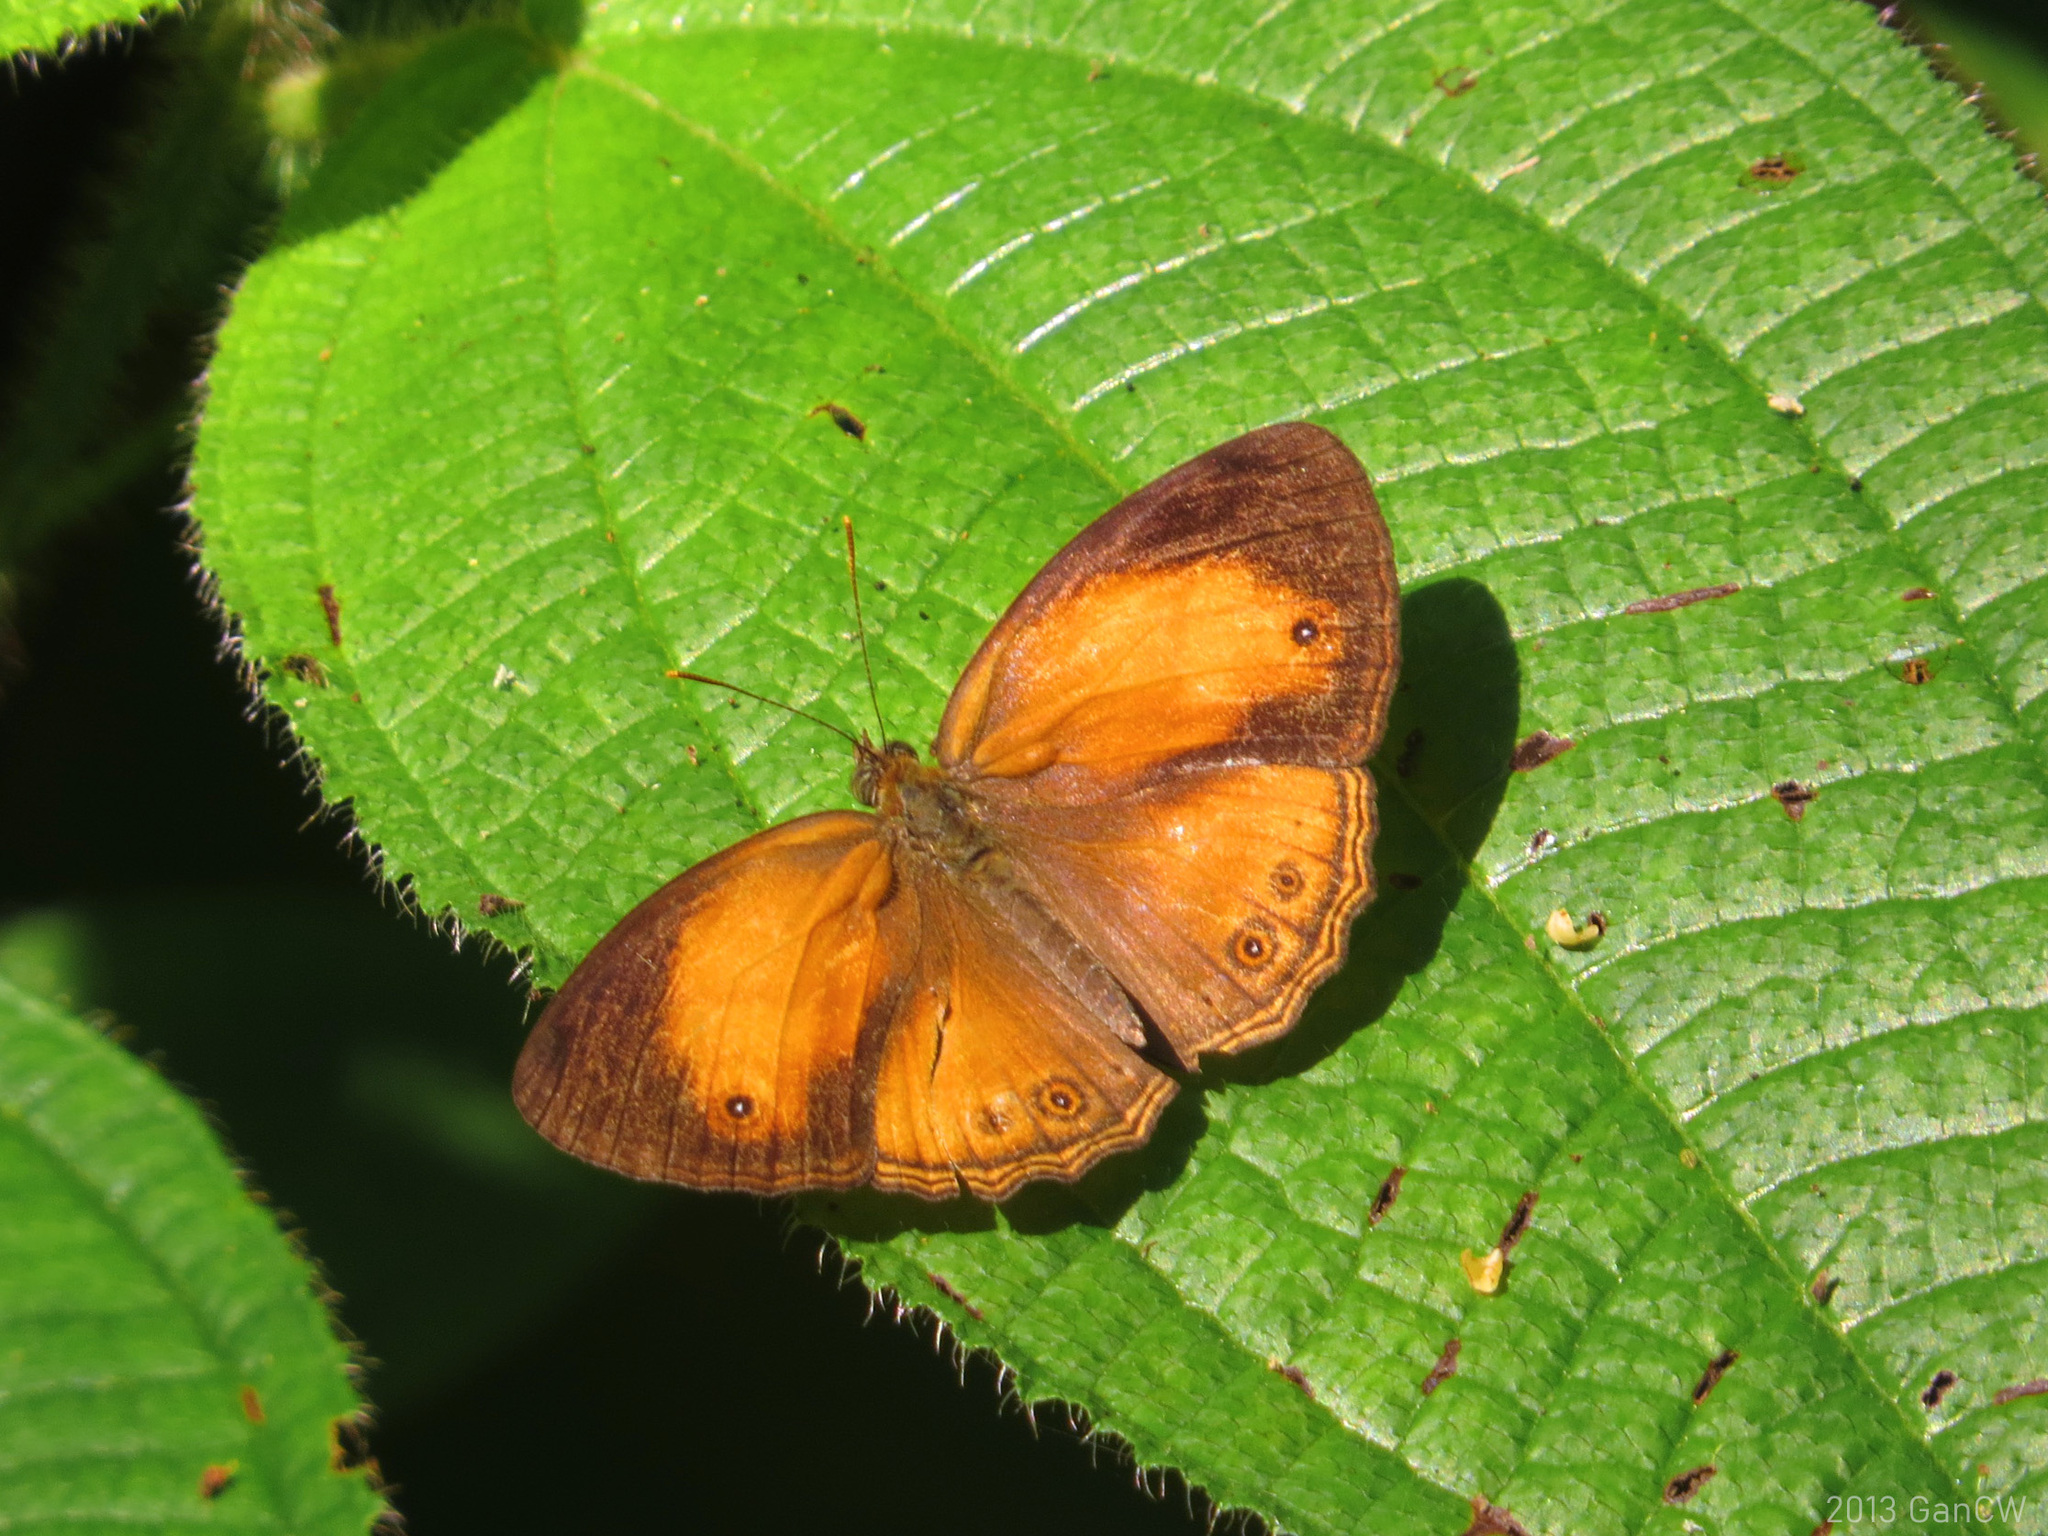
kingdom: Animalia
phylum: Arthropoda
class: Insecta
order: Lepidoptera
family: Nymphalidae
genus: Mycalesis
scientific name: Mycalesis anapita
